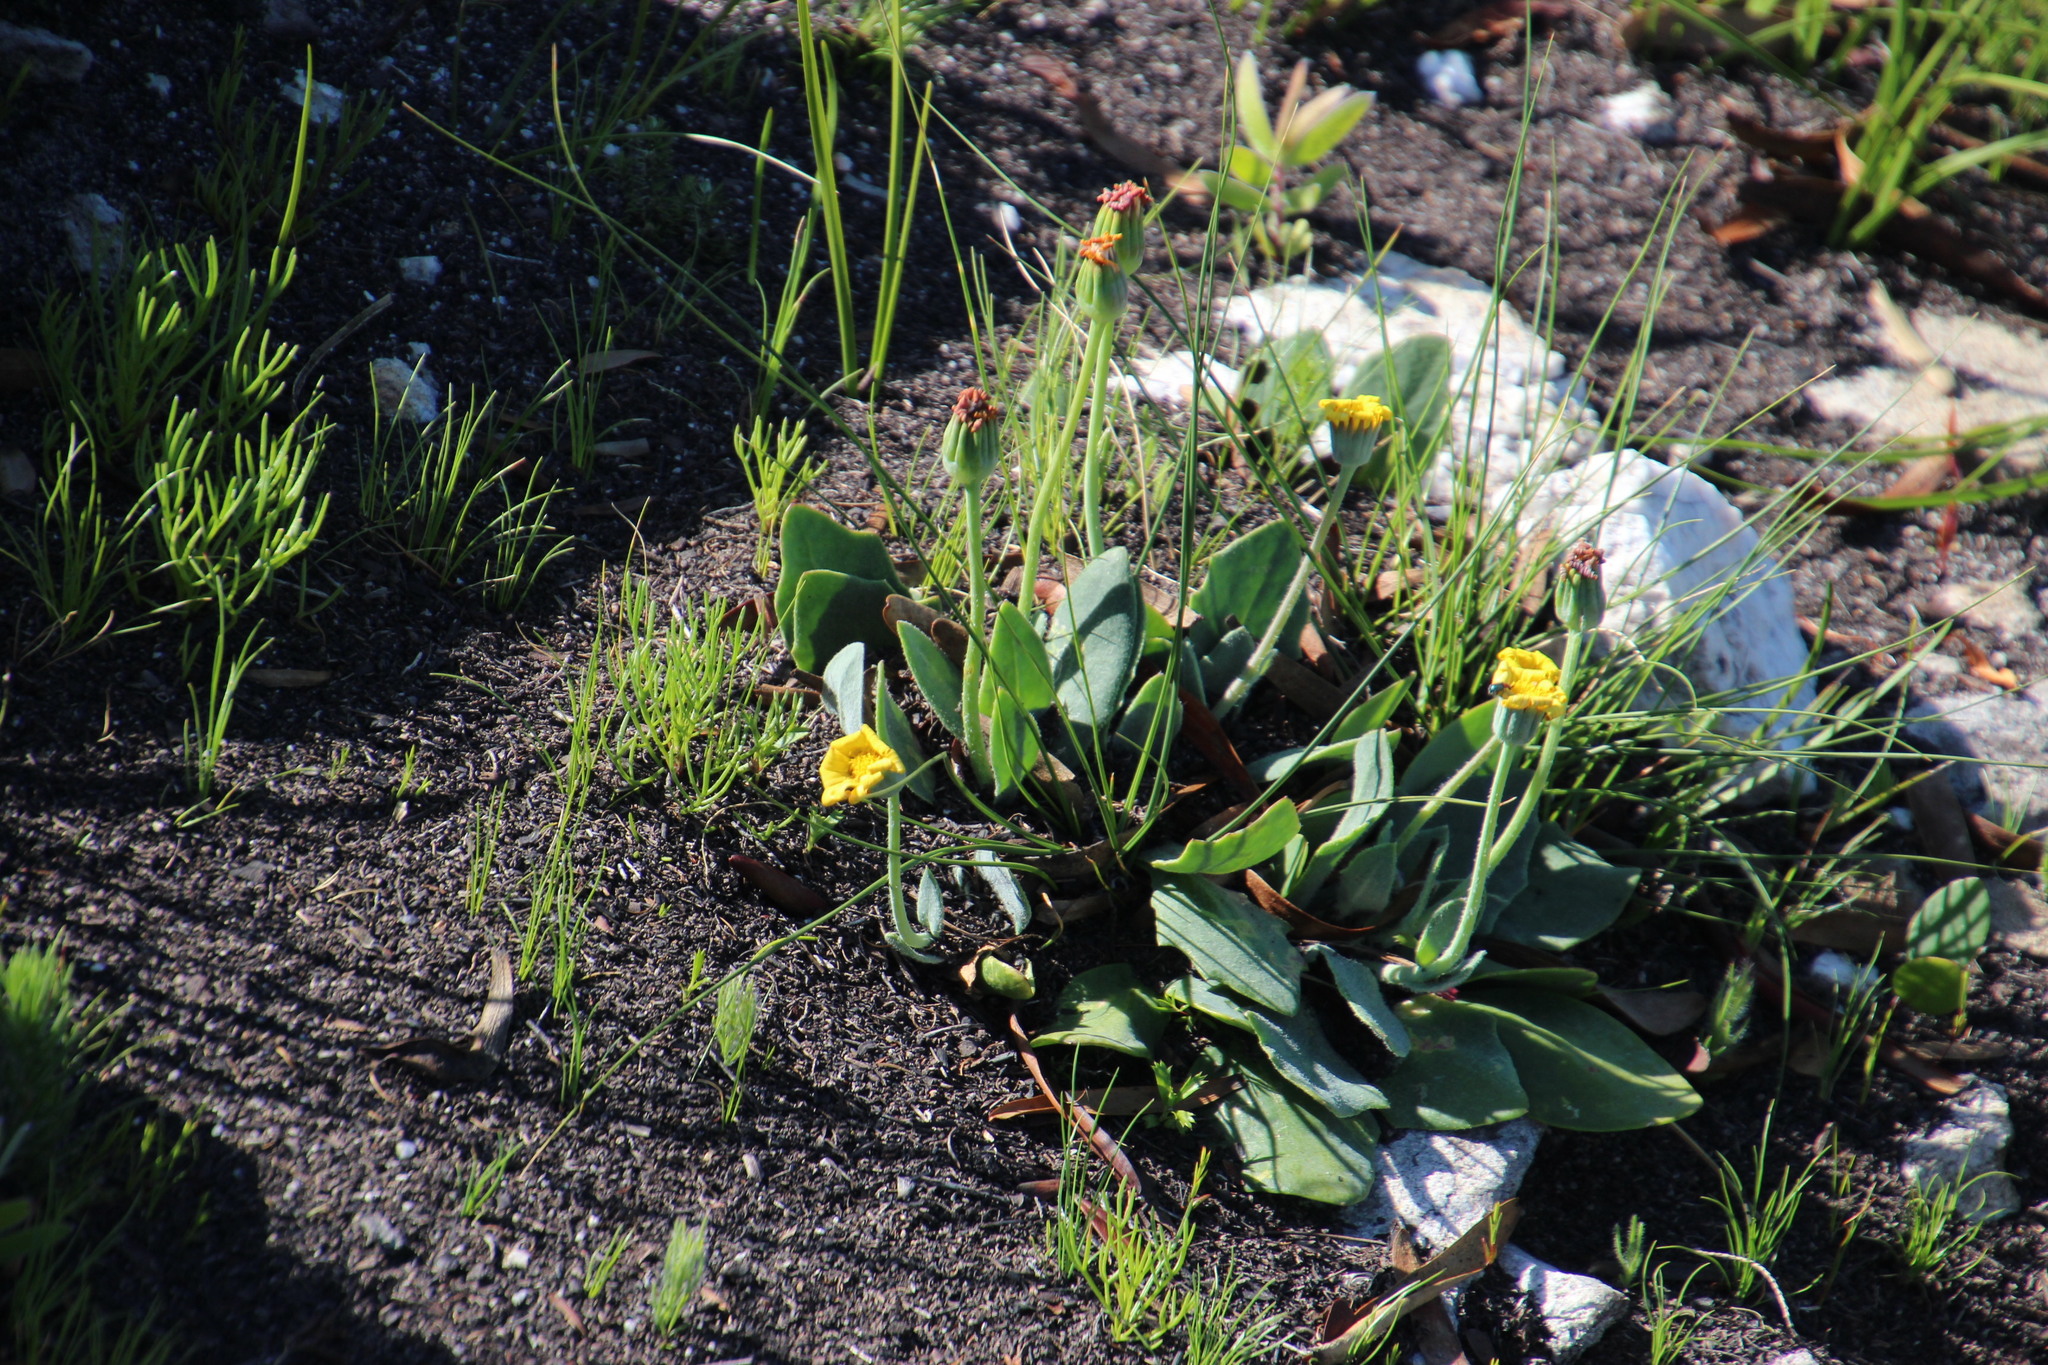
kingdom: Plantae
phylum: Tracheophyta
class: Magnoliopsida
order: Asterales
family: Asteraceae
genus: Othonna
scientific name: Othonna bulbosa
